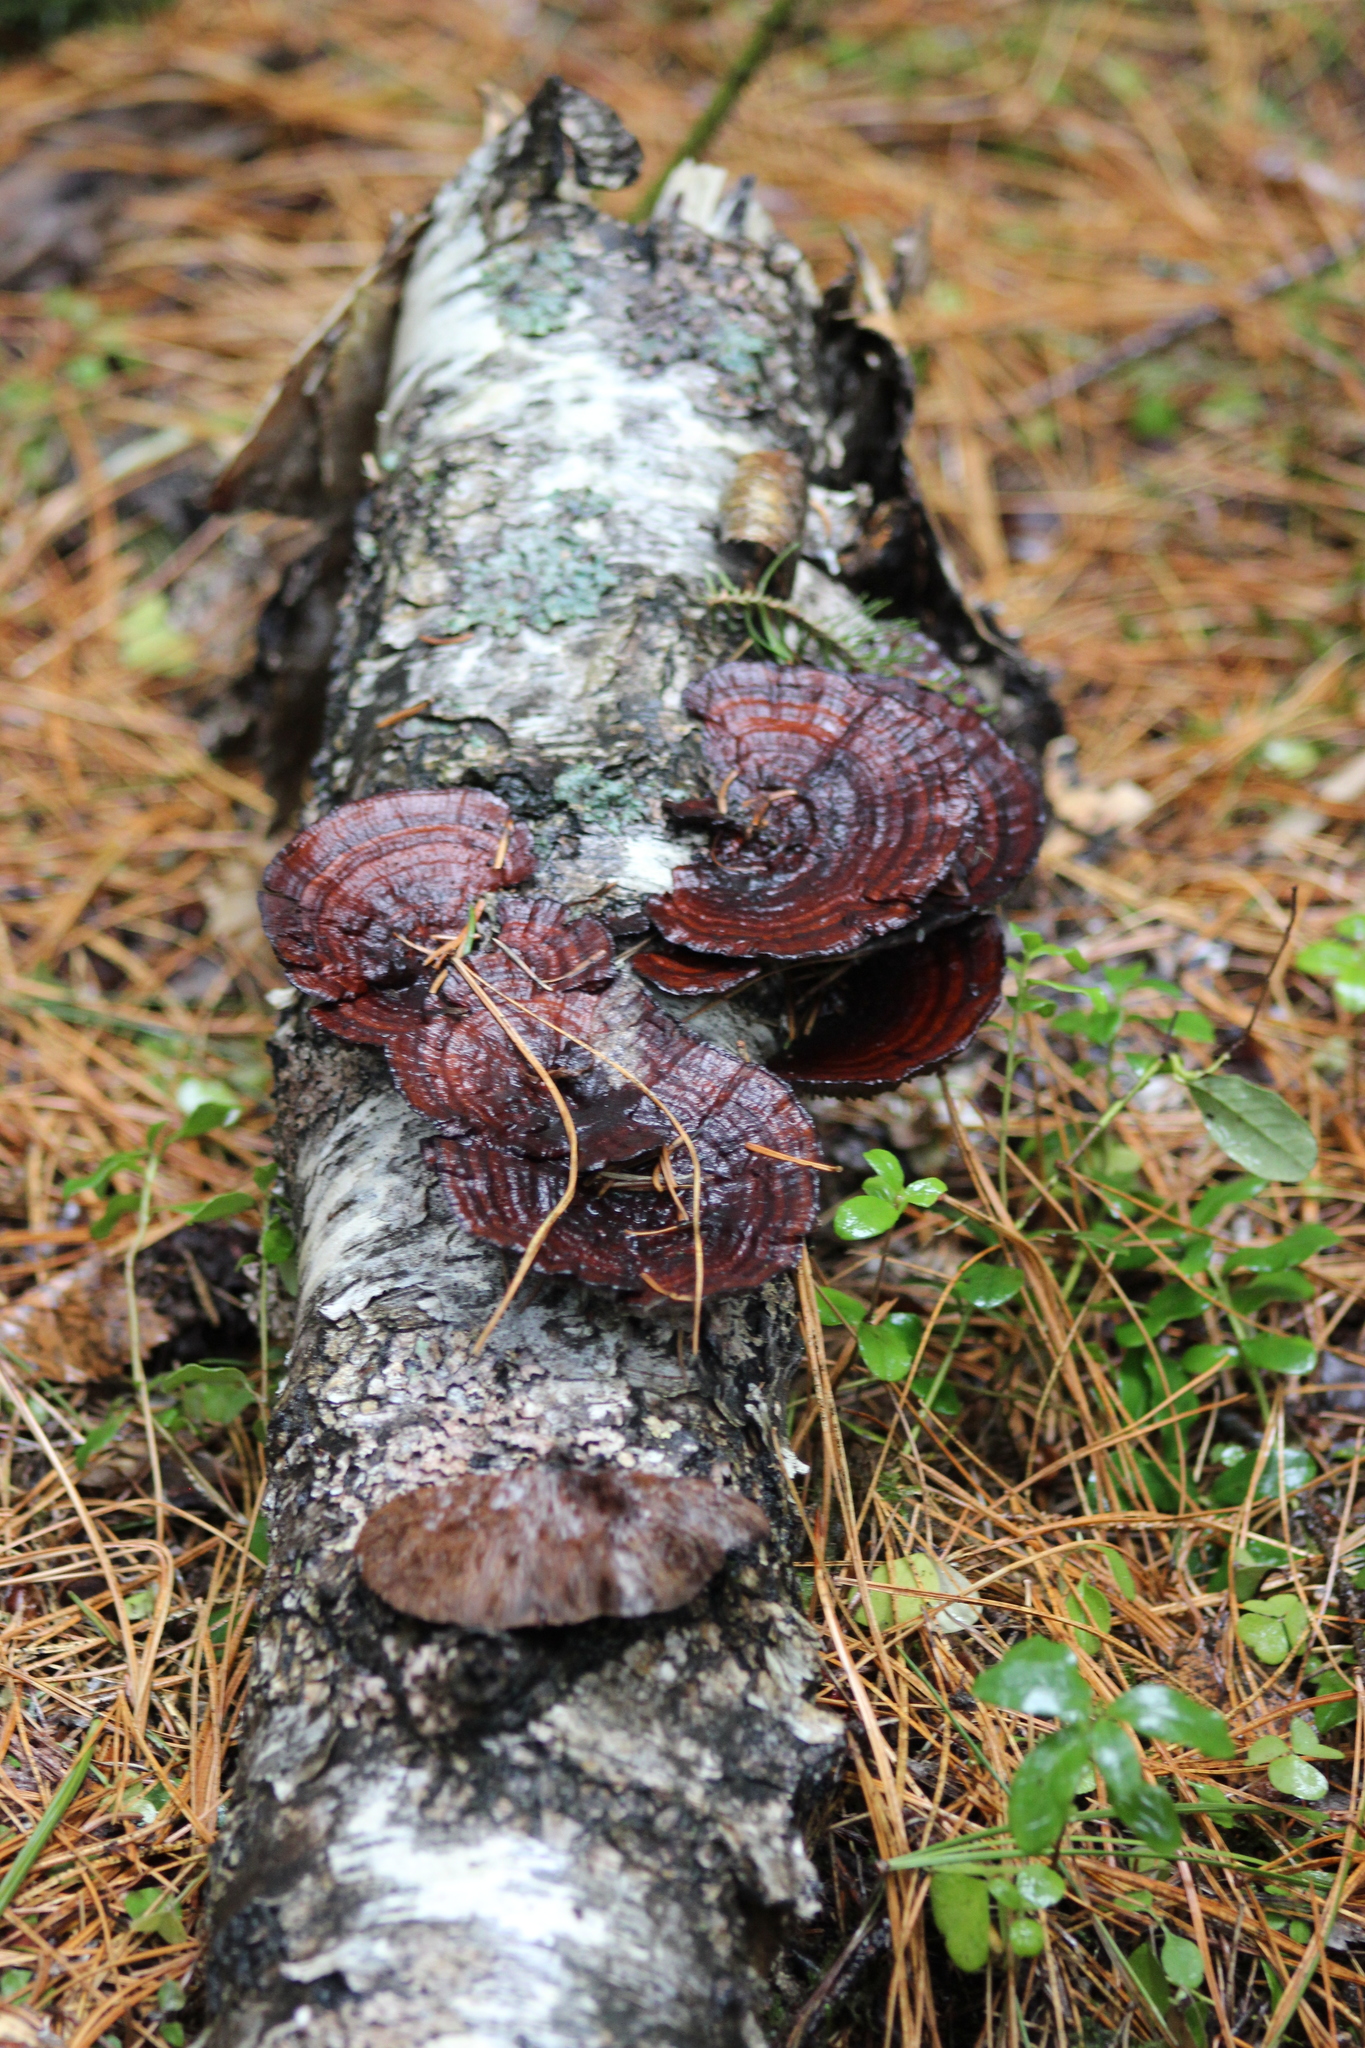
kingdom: Fungi
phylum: Basidiomycota
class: Agaricomycetes
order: Polyporales
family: Polyporaceae
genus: Daedaleopsis
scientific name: Daedaleopsis tricolor
